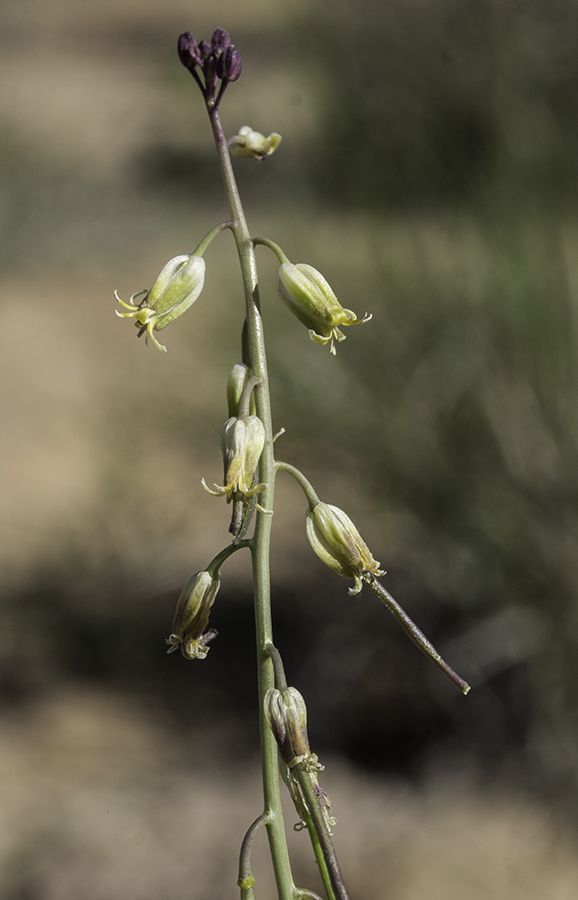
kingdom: Plantae
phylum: Tracheophyta
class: Magnoliopsida
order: Brassicales
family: Brassicaceae
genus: Streptanthus
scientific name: Streptanthus longirostris
